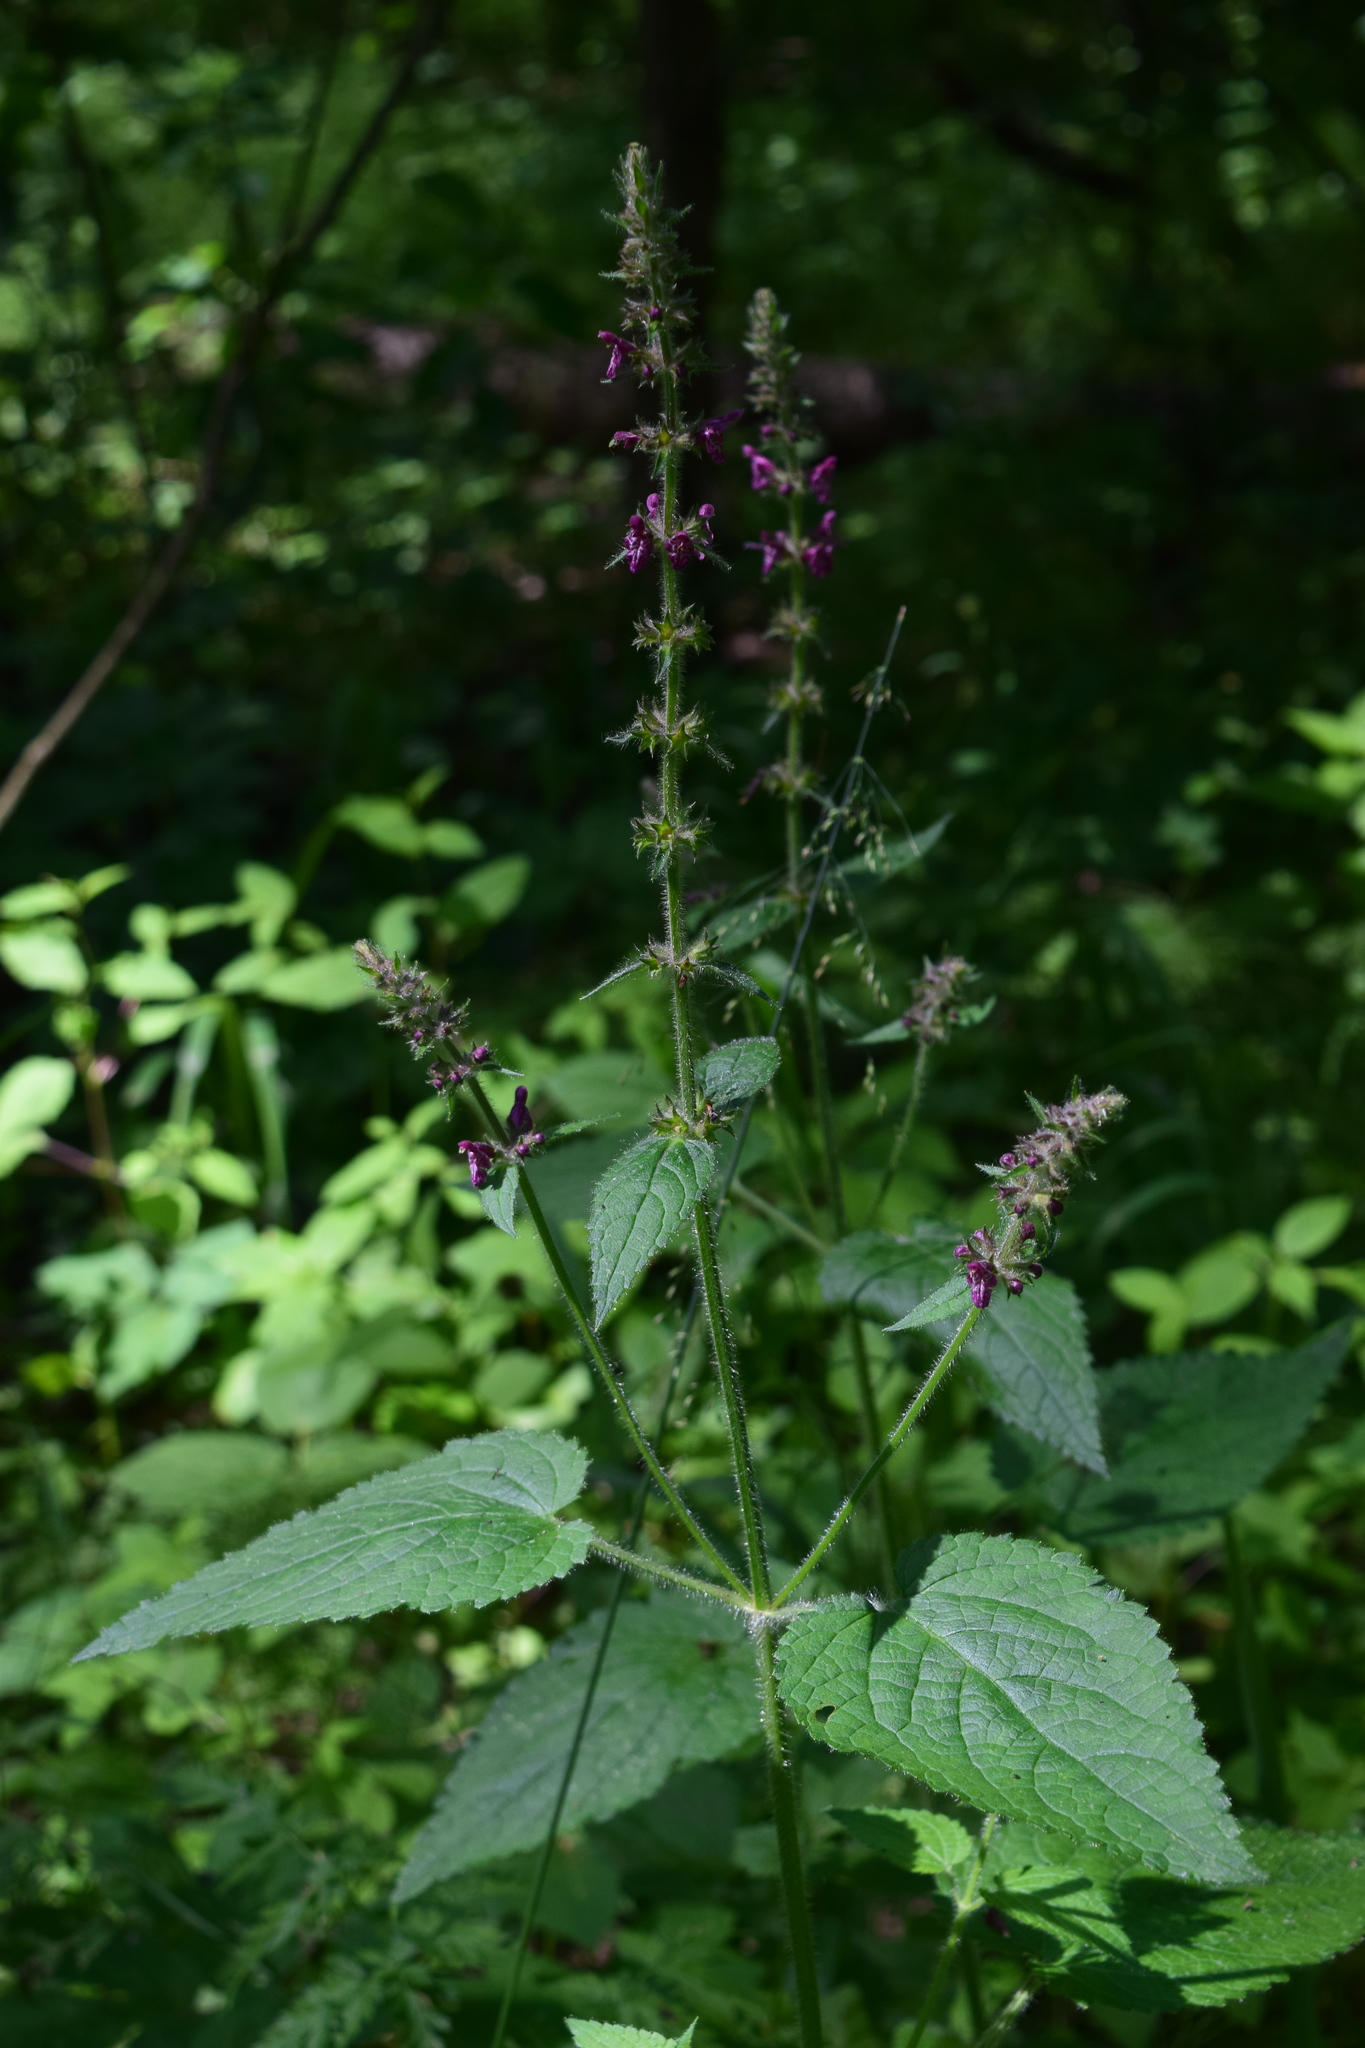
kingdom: Plantae
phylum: Tracheophyta
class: Magnoliopsida
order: Lamiales
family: Lamiaceae
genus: Stachys
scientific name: Stachys sylvatica
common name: Hedge woundwort
